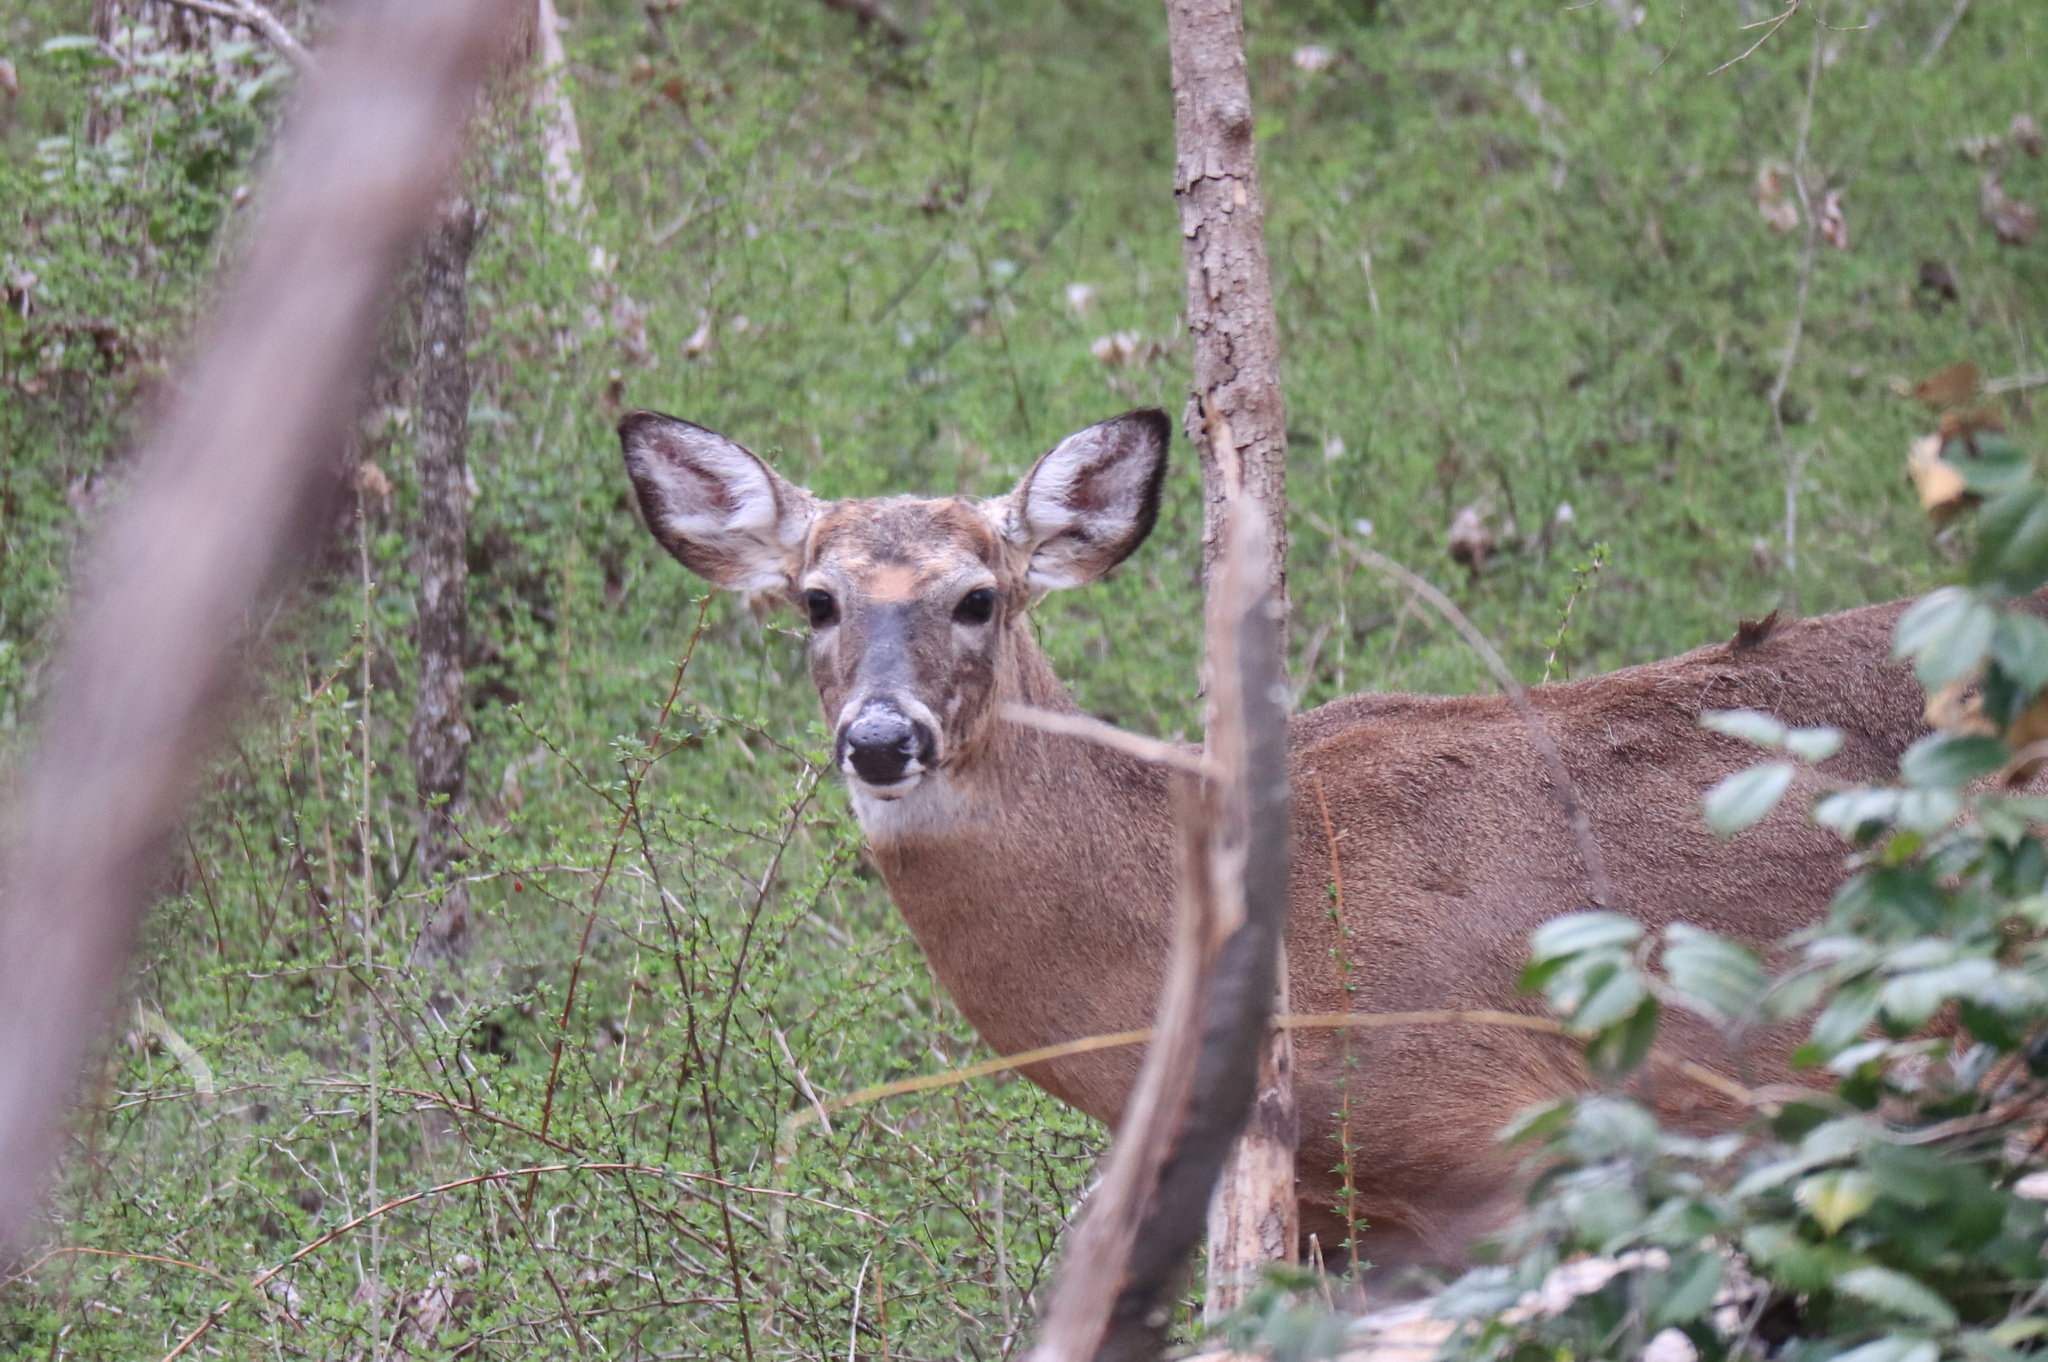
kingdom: Animalia
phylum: Chordata
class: Mammalia
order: Artiodactyla
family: Cervidae
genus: Odocoileus
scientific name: Odocoileus virginianus
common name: White-tailed deer
